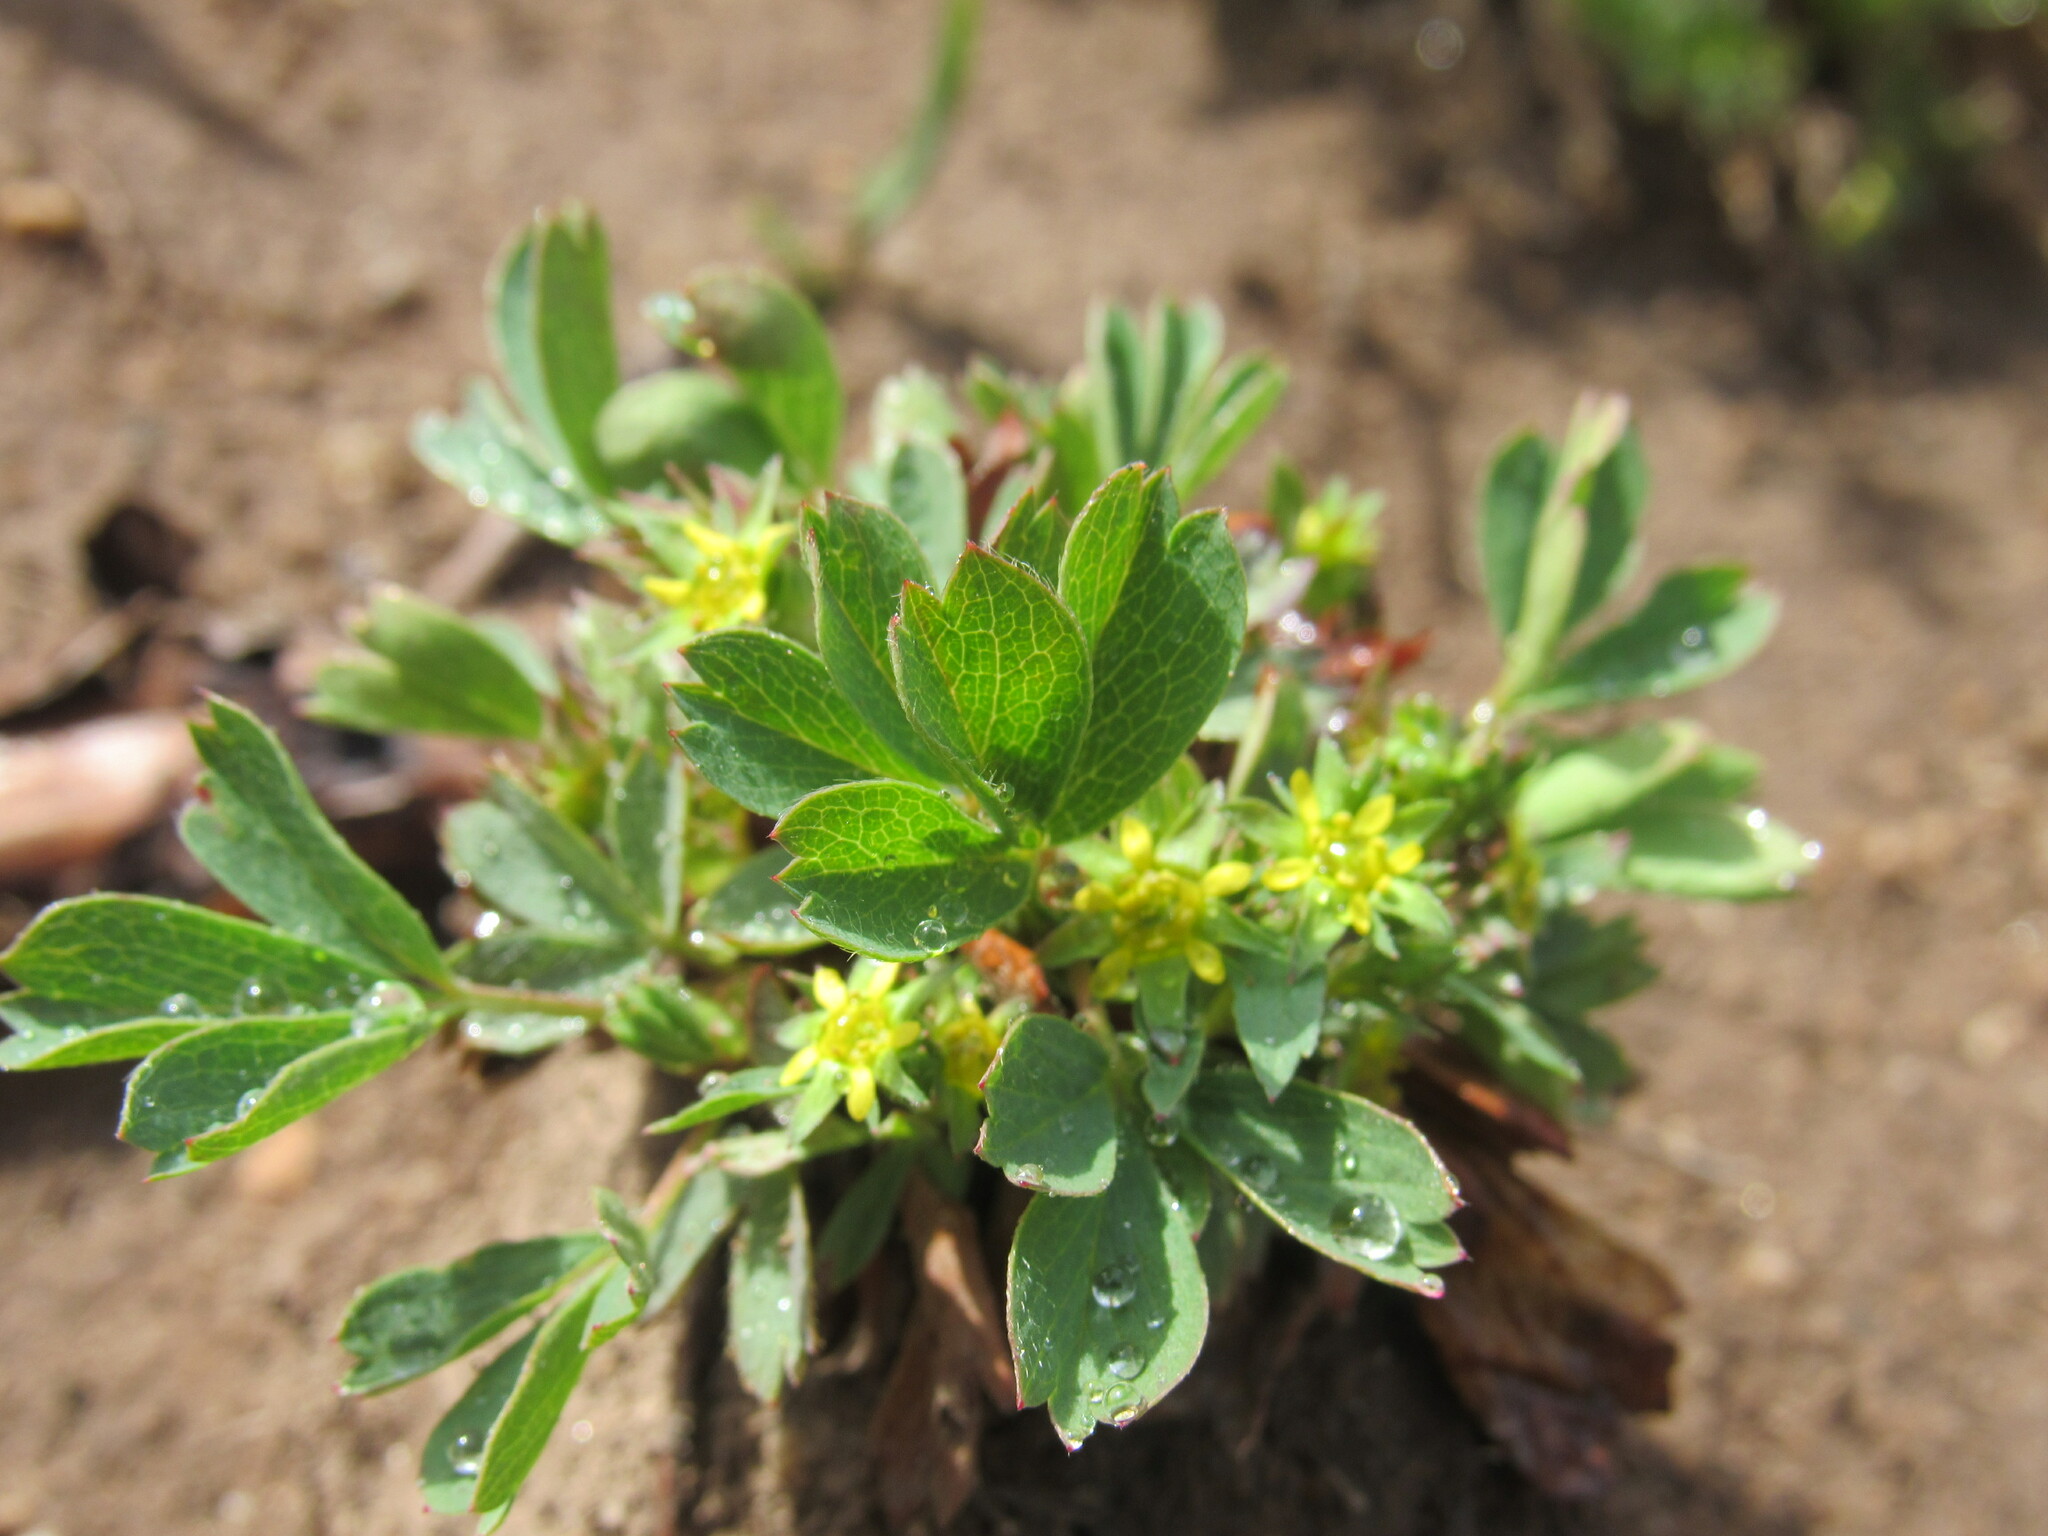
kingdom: Plantae
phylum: Tracheophyta
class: Magnoliopsida
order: Rosales
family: Rosaceae
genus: Sibbaldia
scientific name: Sibbaldia procumbens
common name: Creeping sibbaldia
